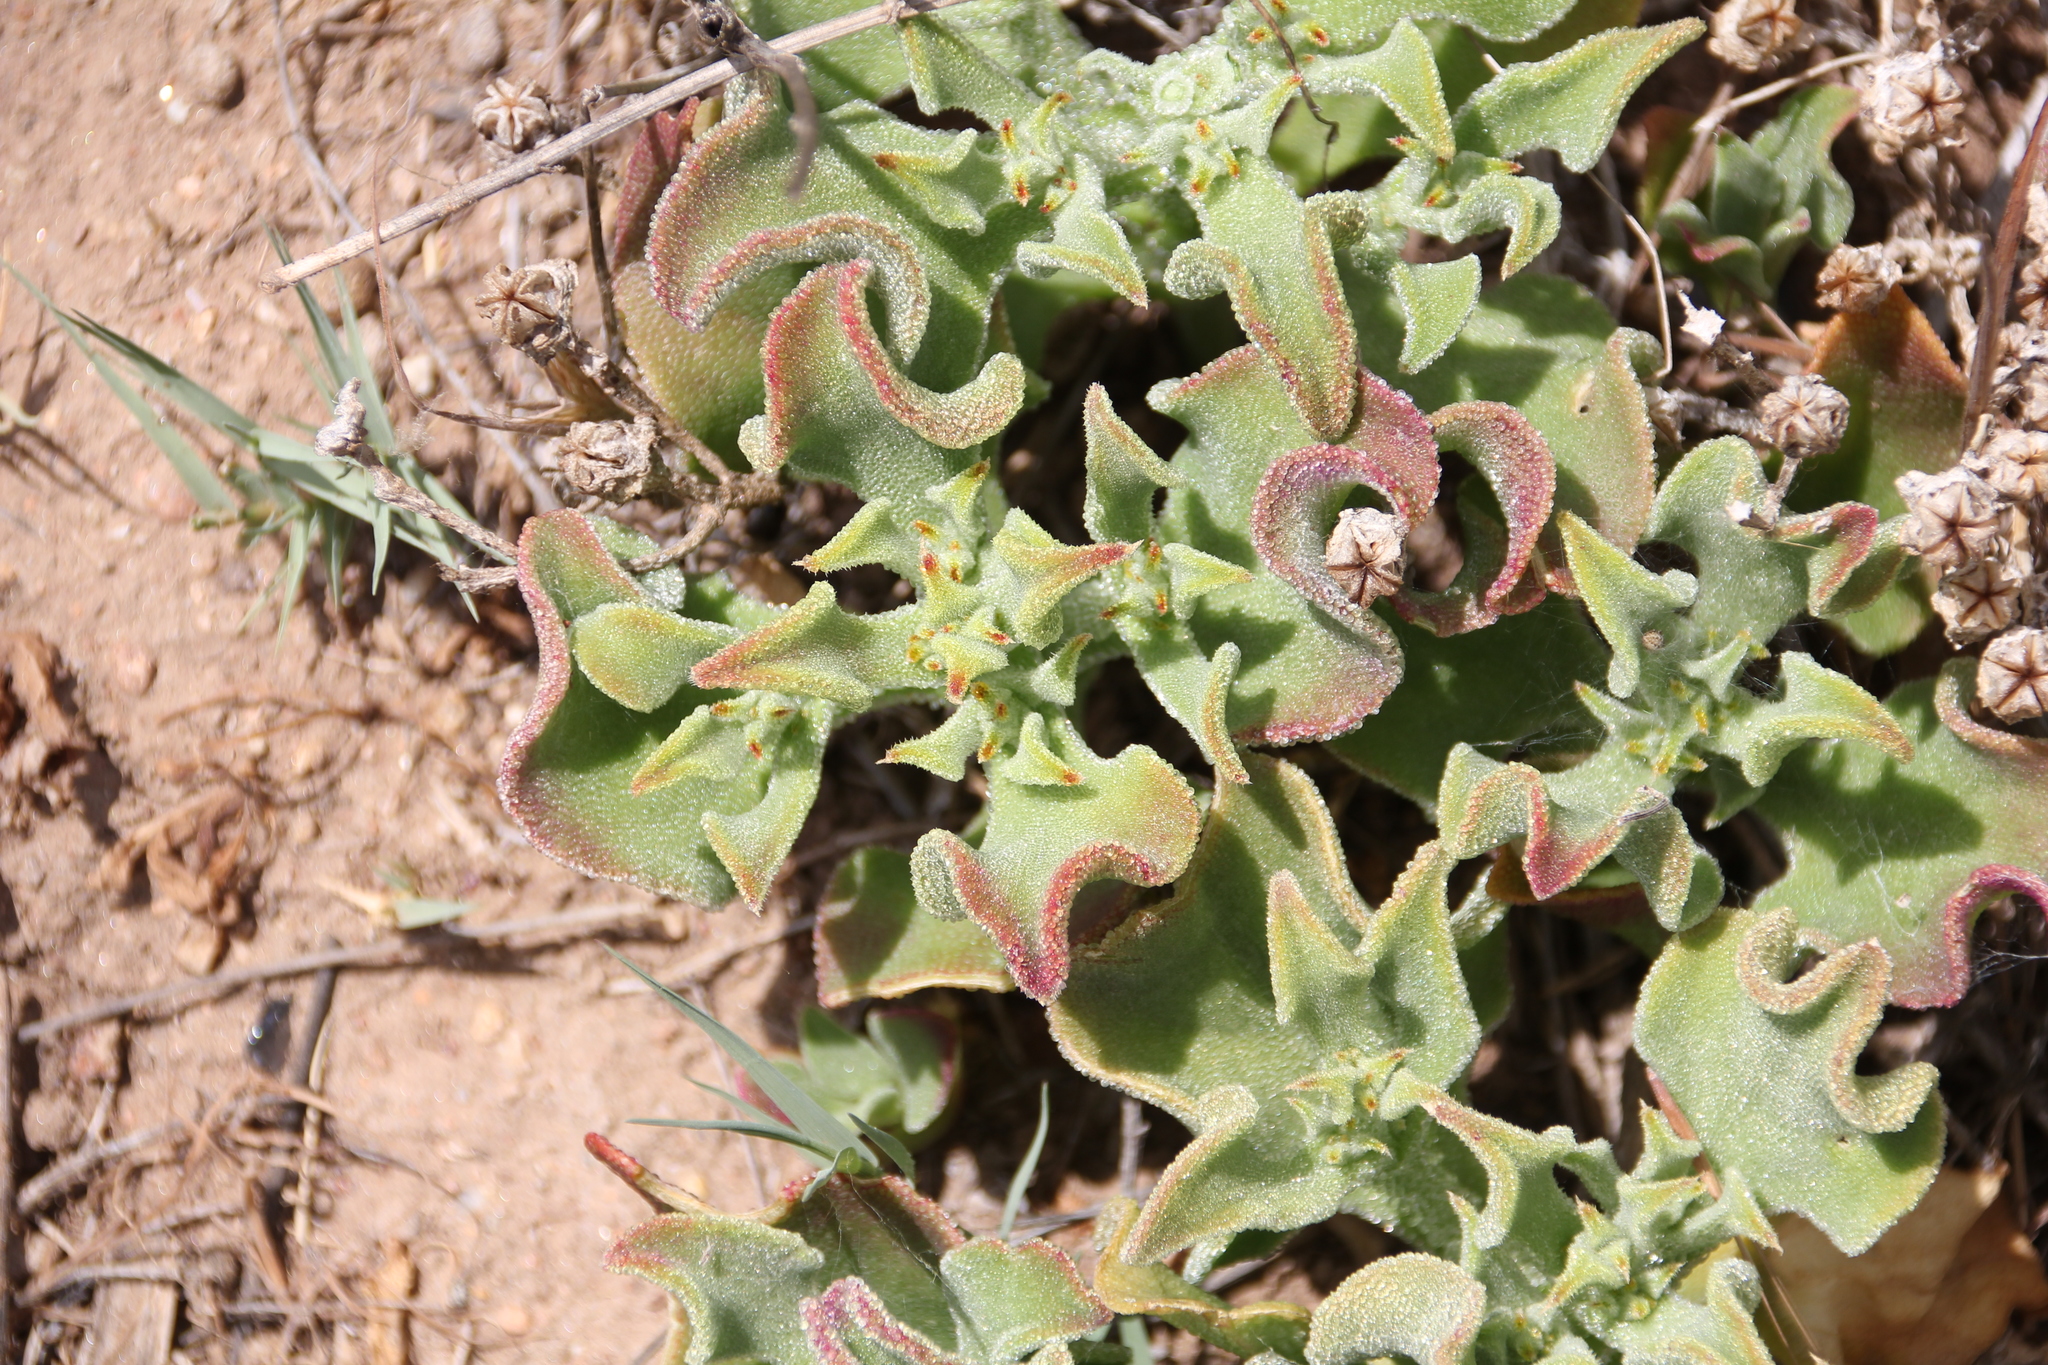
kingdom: Plantae
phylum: Tracheophyta
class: Magnoliopsida
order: Caryophyllales
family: Aizoaceae
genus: Mesembryanthemum
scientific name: Mesembryanthemum crystallinum
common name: Common iceplant
